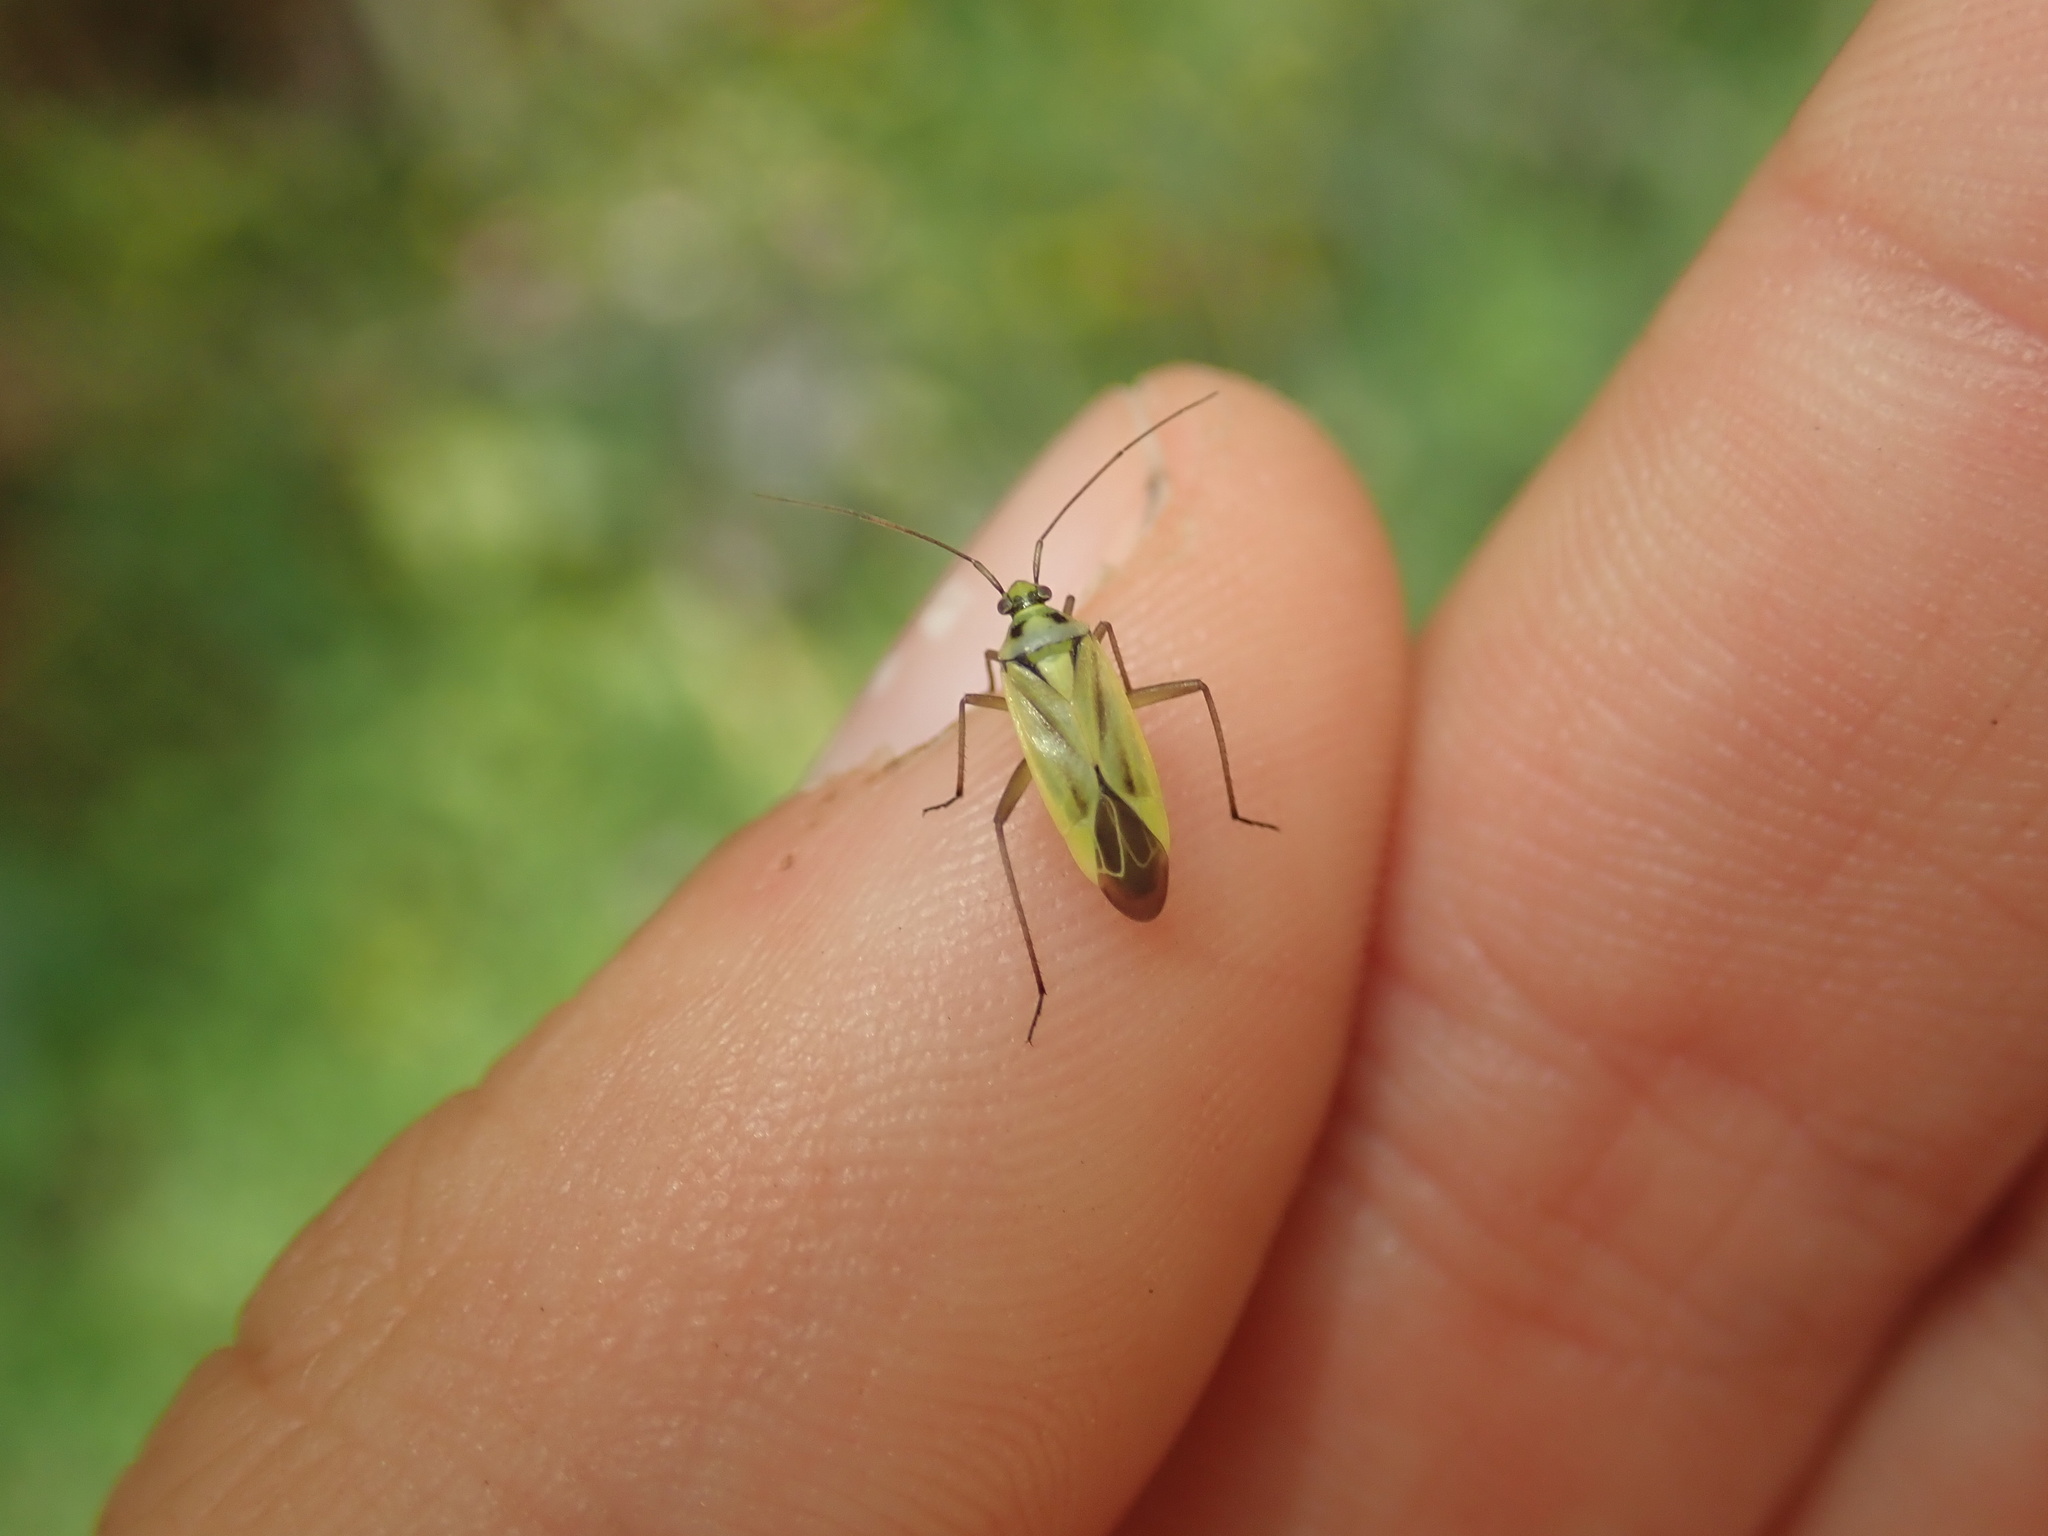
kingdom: Animalia
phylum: Arthropoda
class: Insecta
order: Hemiptera
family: Miridae
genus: Stenotus
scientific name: Stenotus binotatus
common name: Plant bug
